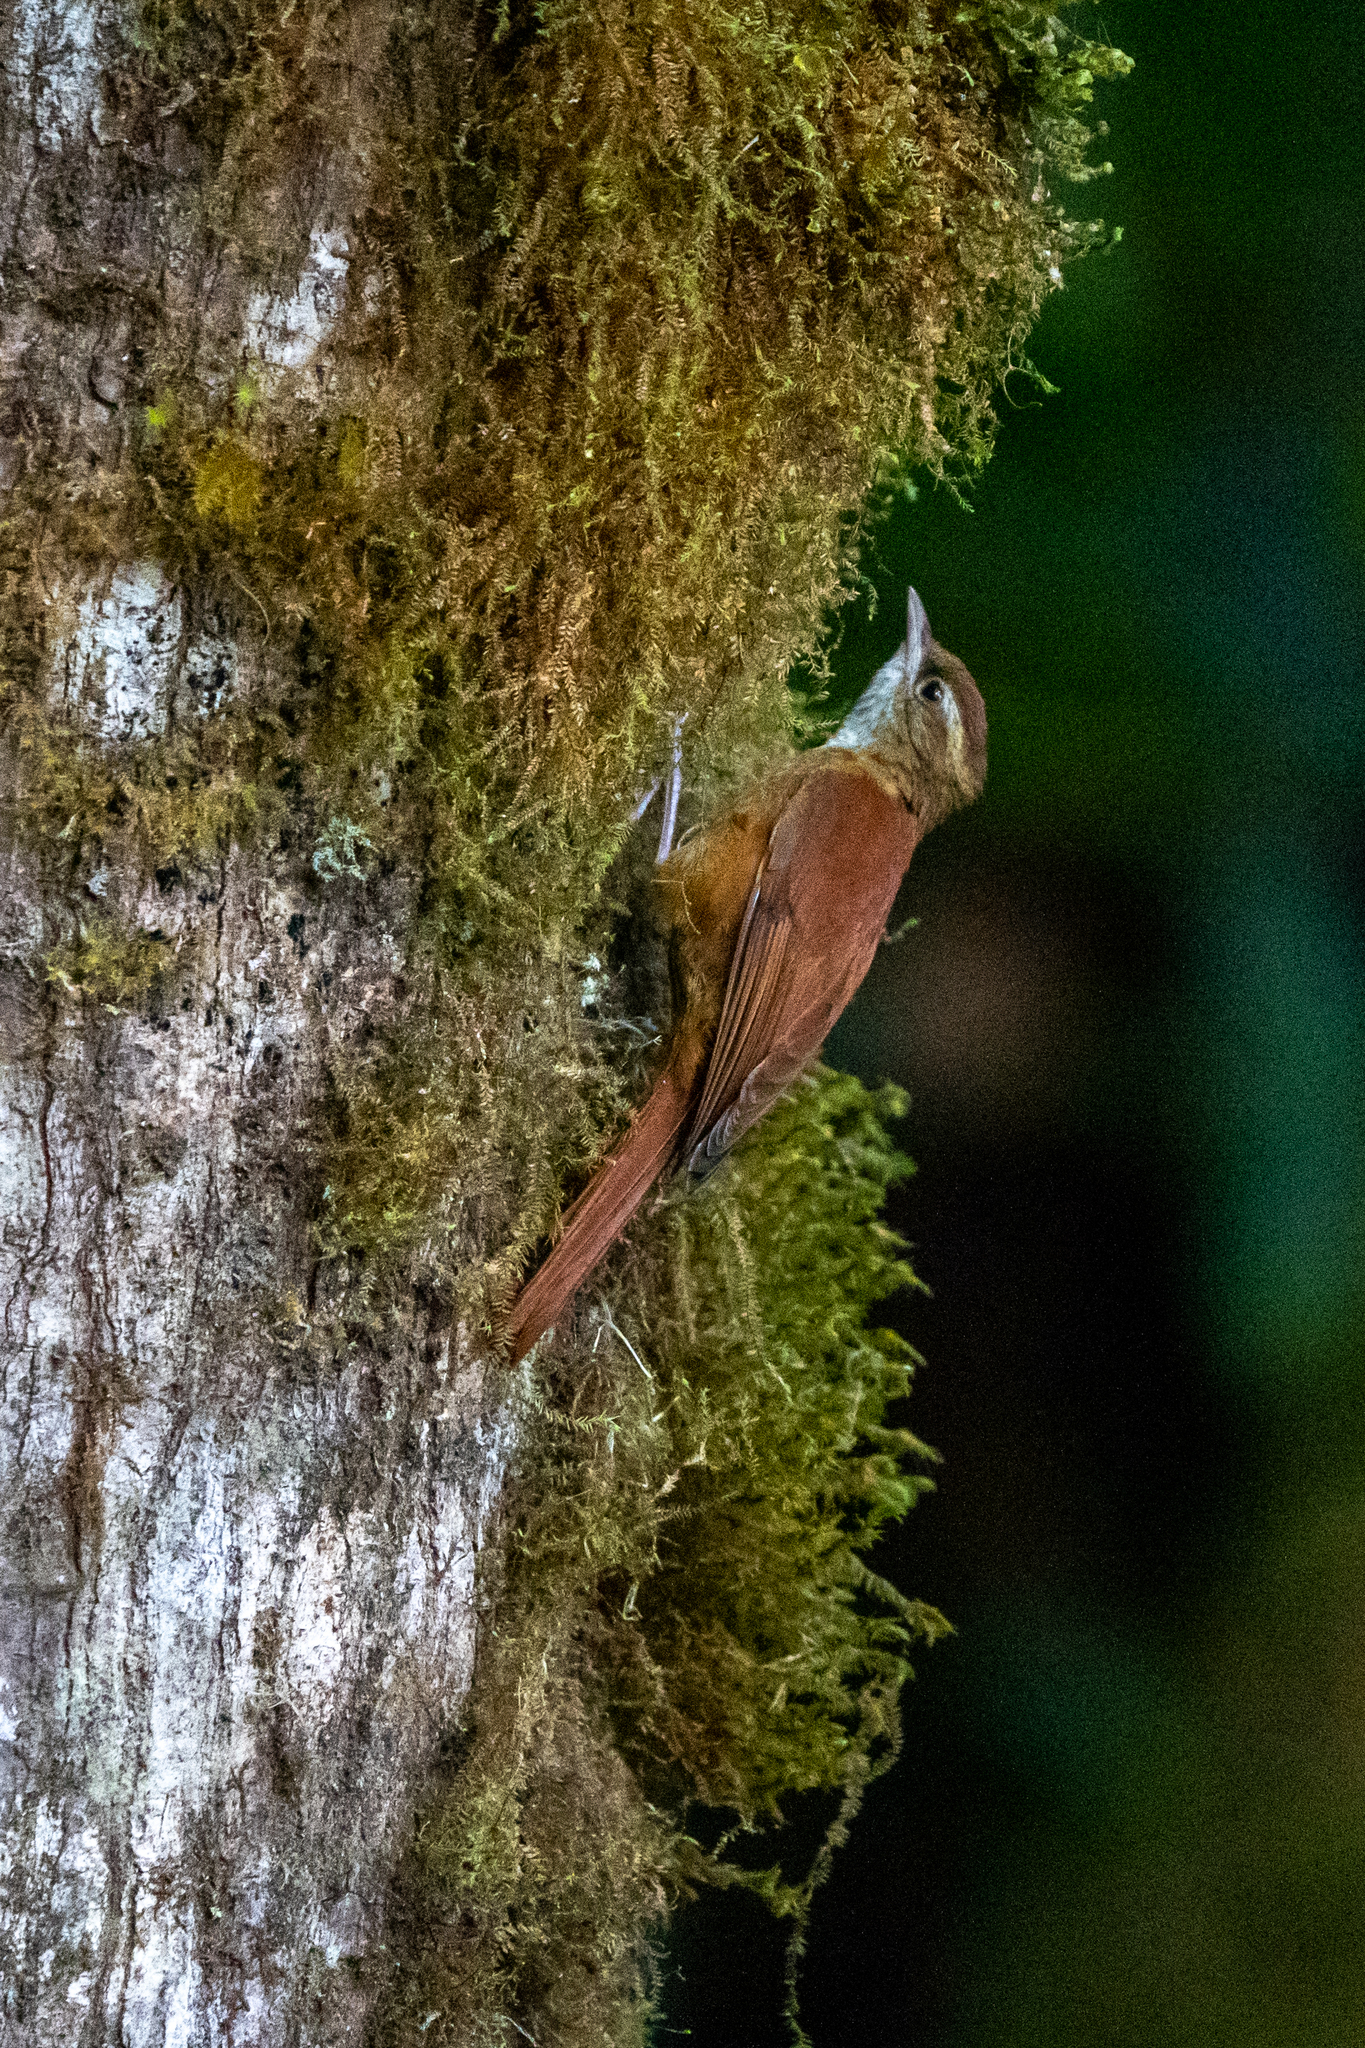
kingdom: Animalia
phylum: Chordata
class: Aves
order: Passeriformes
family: Furnariidae
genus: Margarornis
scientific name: Margarornis rubiginosus
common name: Ruddy treerunner
